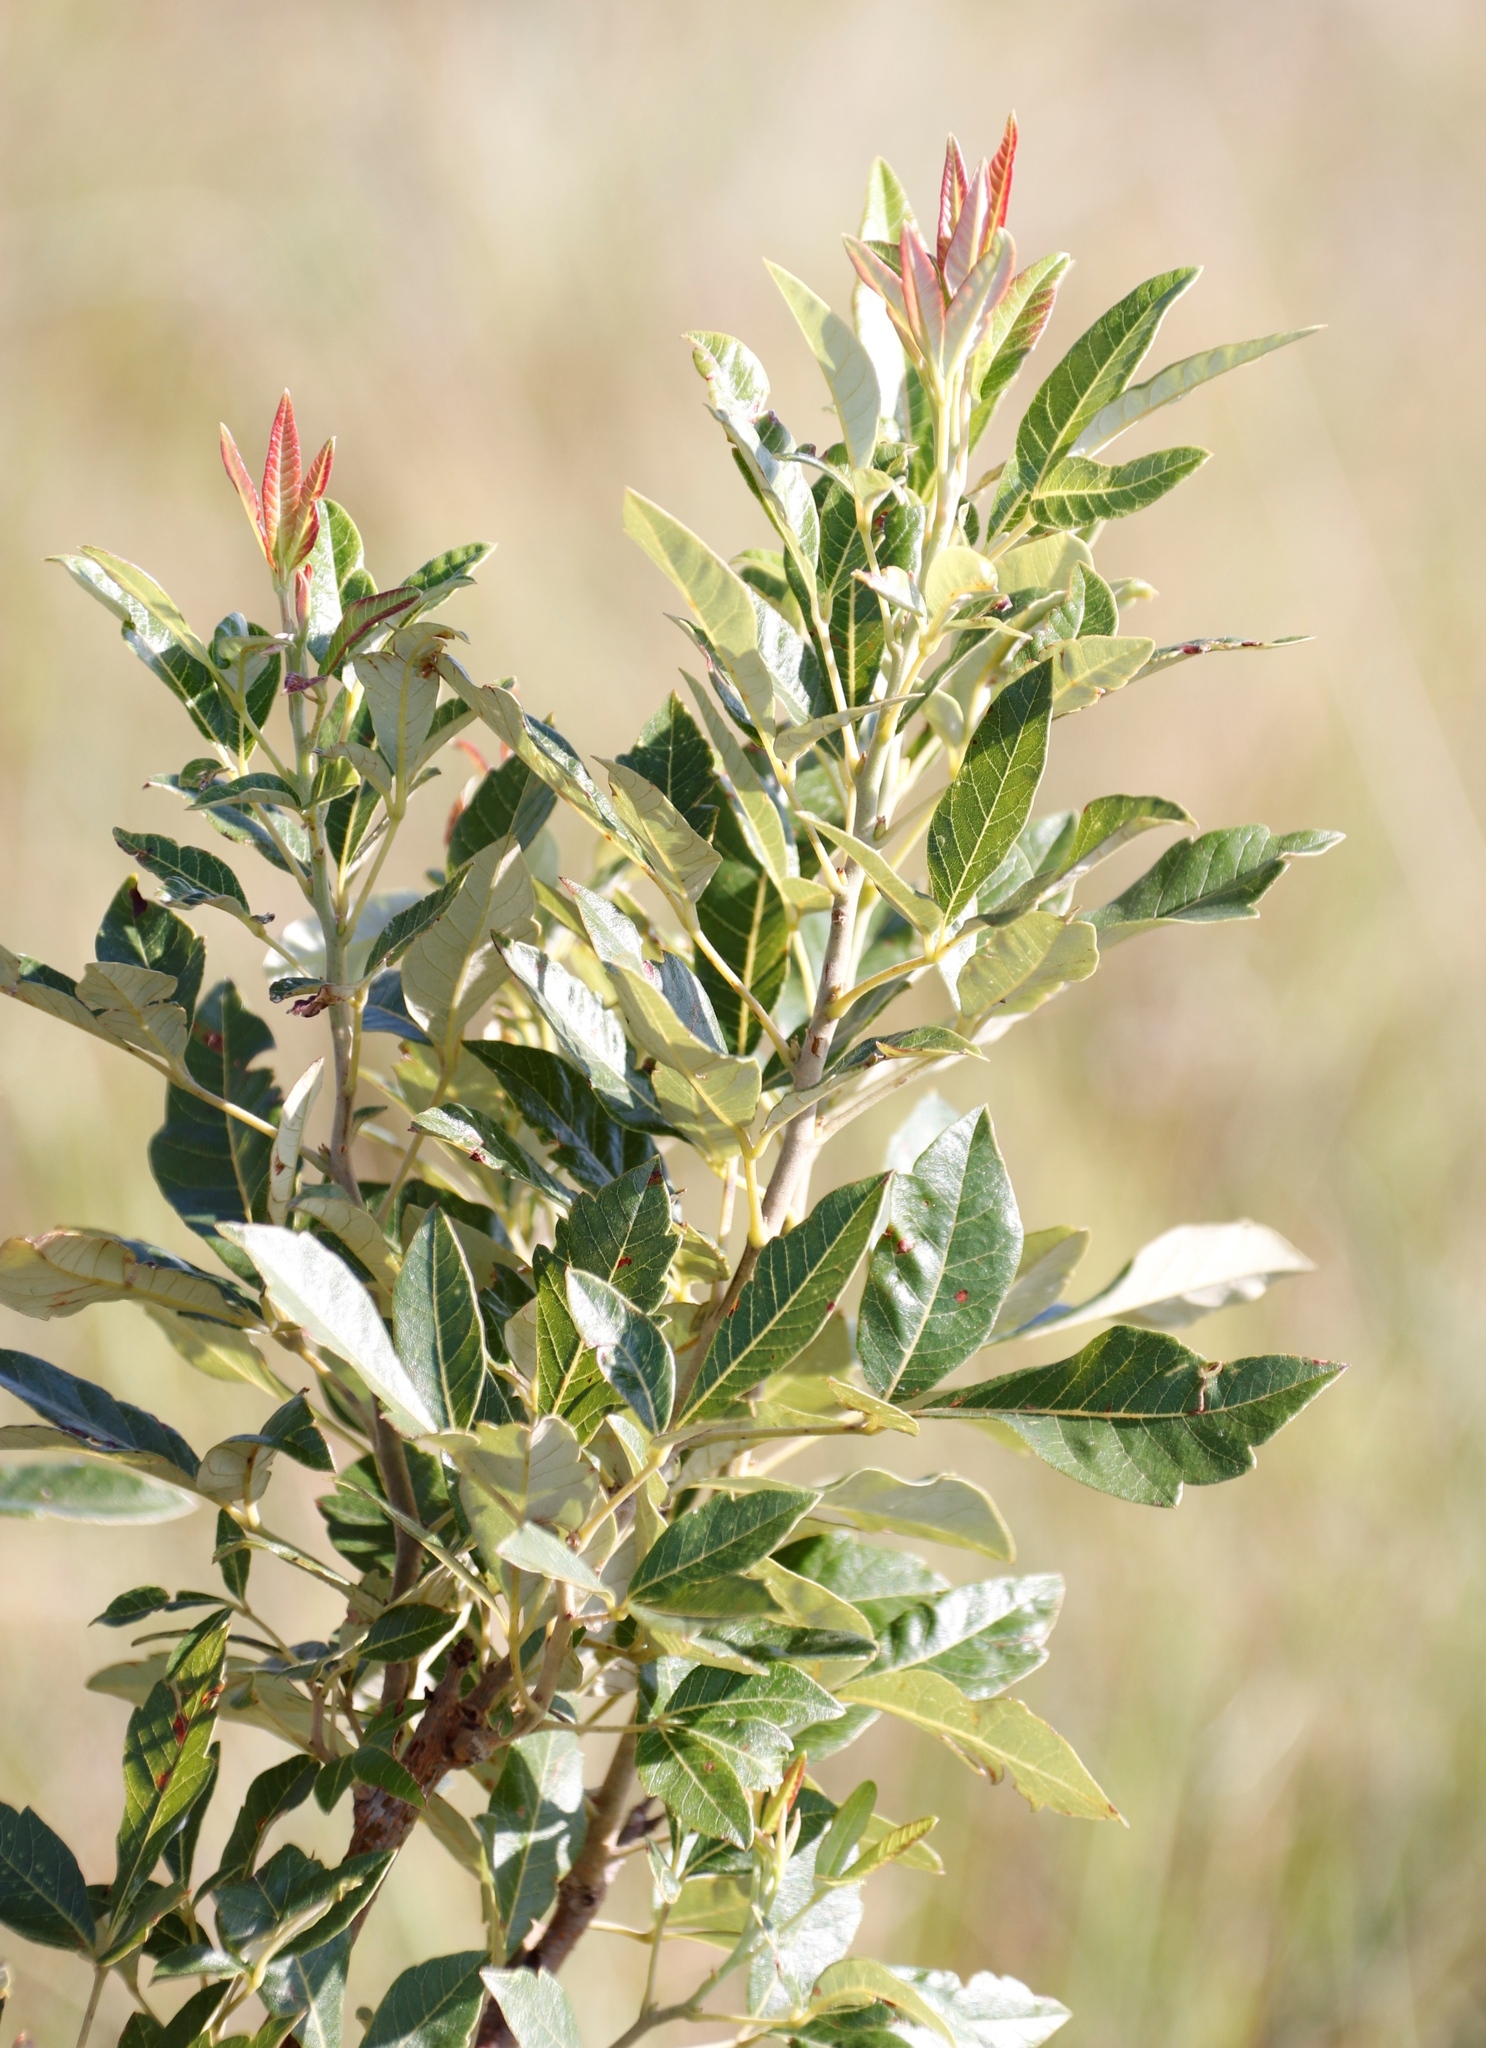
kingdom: Plantae
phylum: Tracheophyta
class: Magnoliopsida
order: Sapindales
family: Anacardiaceae
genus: Searsia
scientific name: Searsia tomentosa
